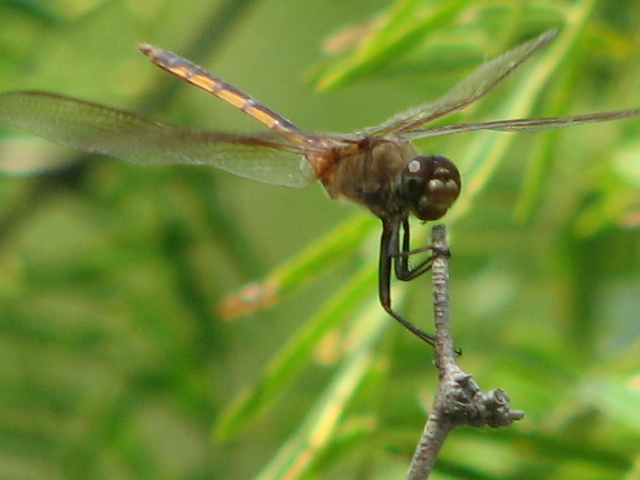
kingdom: Animalia
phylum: Arthropoda
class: Insecta
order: Odonata
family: Libellulidae
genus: Brachymesia
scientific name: Brachymesia herbida
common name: Tawny pennant
